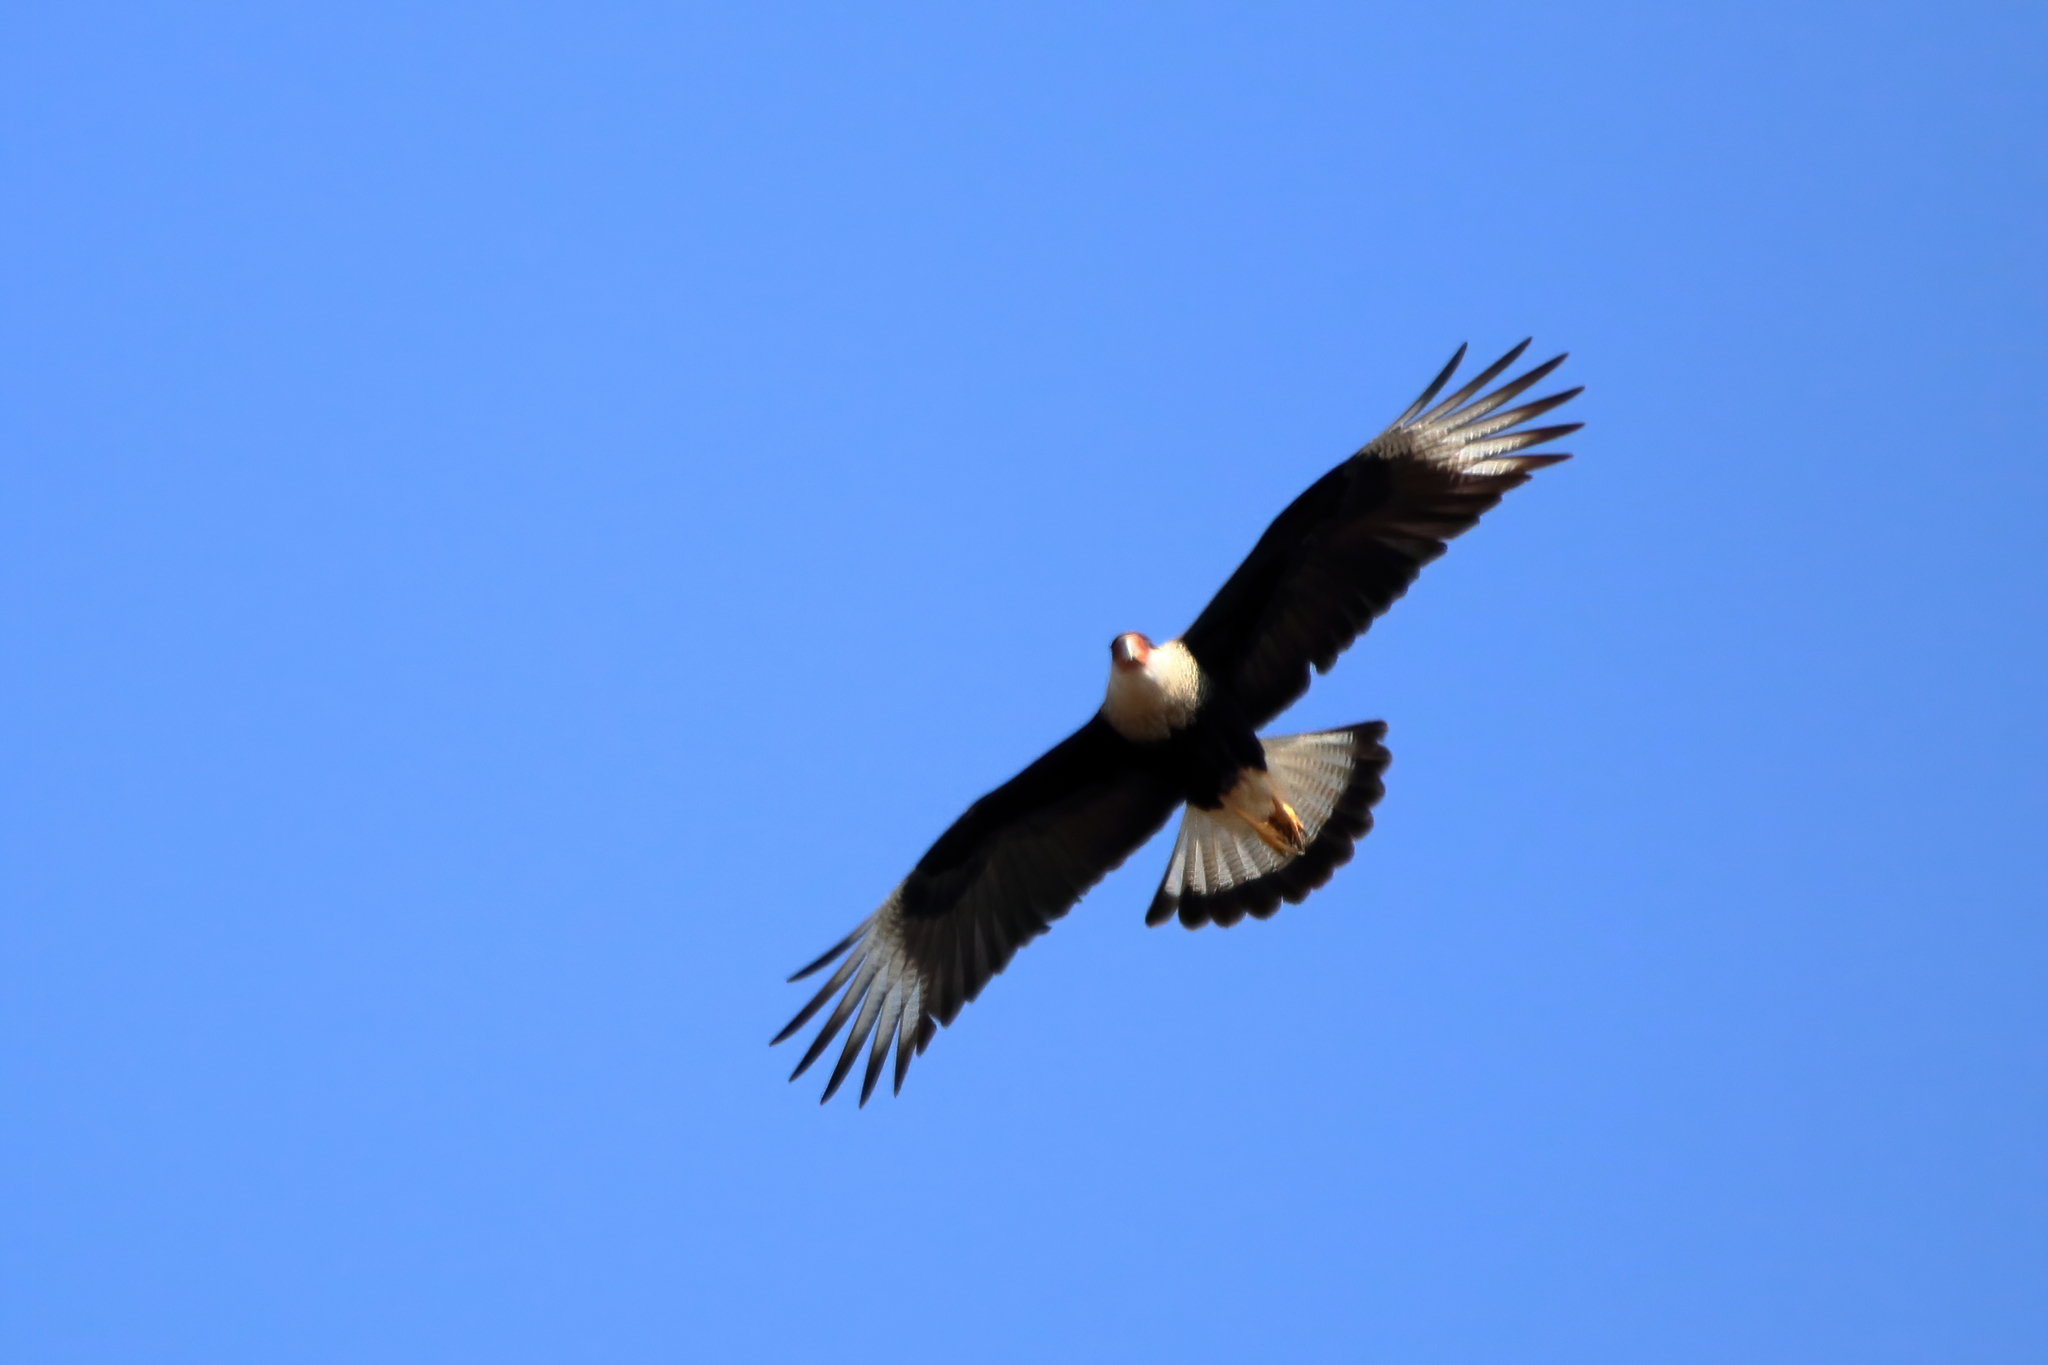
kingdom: Animalia
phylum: Chordata
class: Aves
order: Falconiformes
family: Falconidae
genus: Caracara
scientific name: Caracara plancus
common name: Southern caracara
